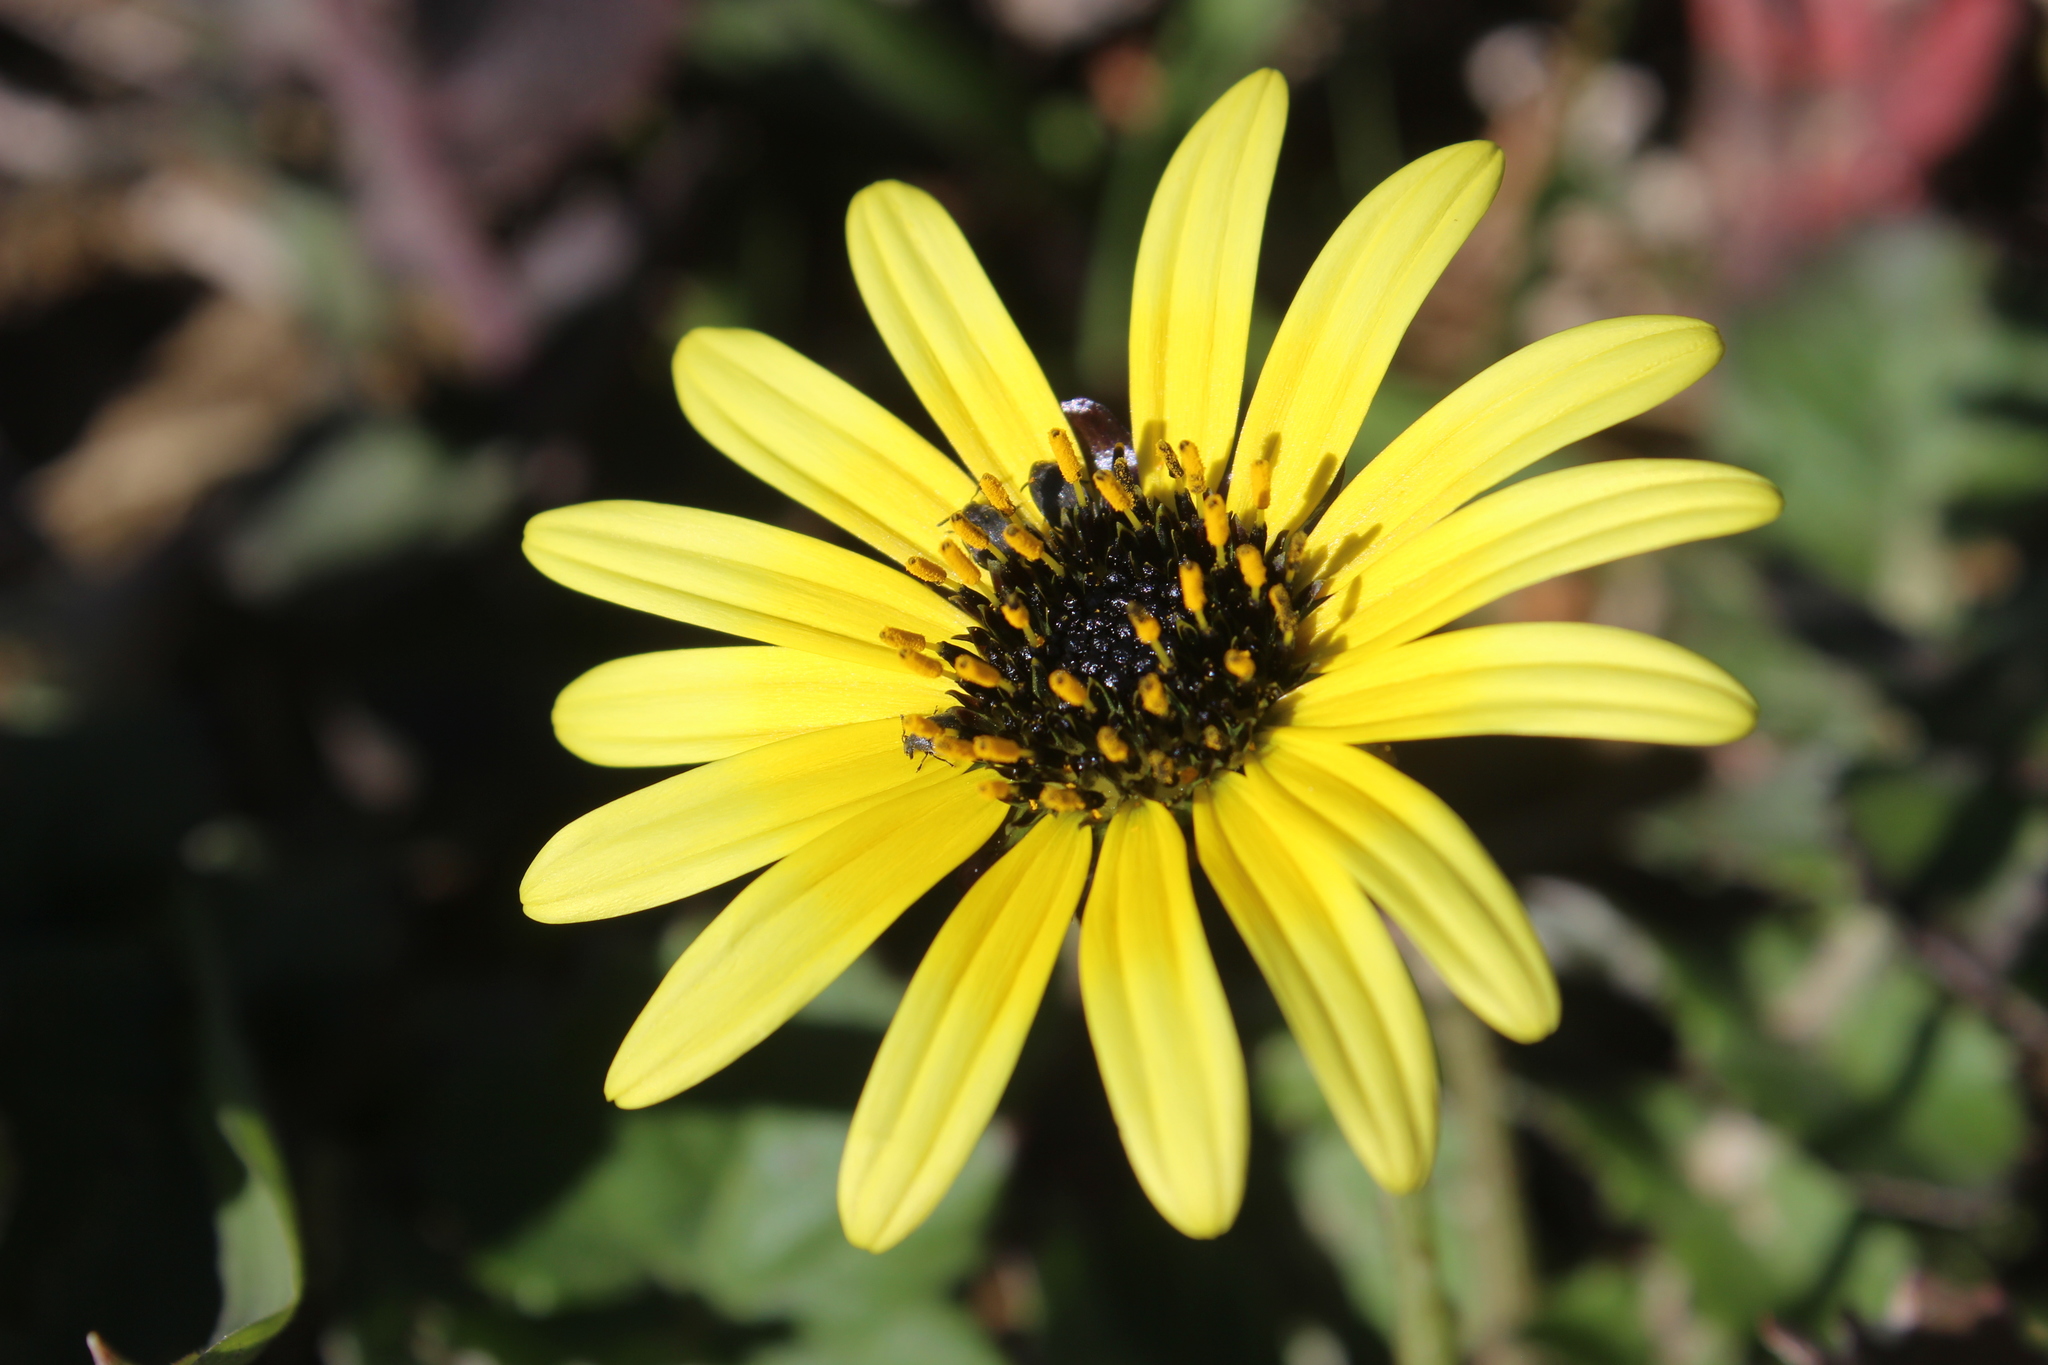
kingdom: Plantae
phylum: Tracheophyta
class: Magnoliopsida
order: Asterales
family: Asteraceae
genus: Arctotheca
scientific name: Arctotheca calendula
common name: Capeweed
